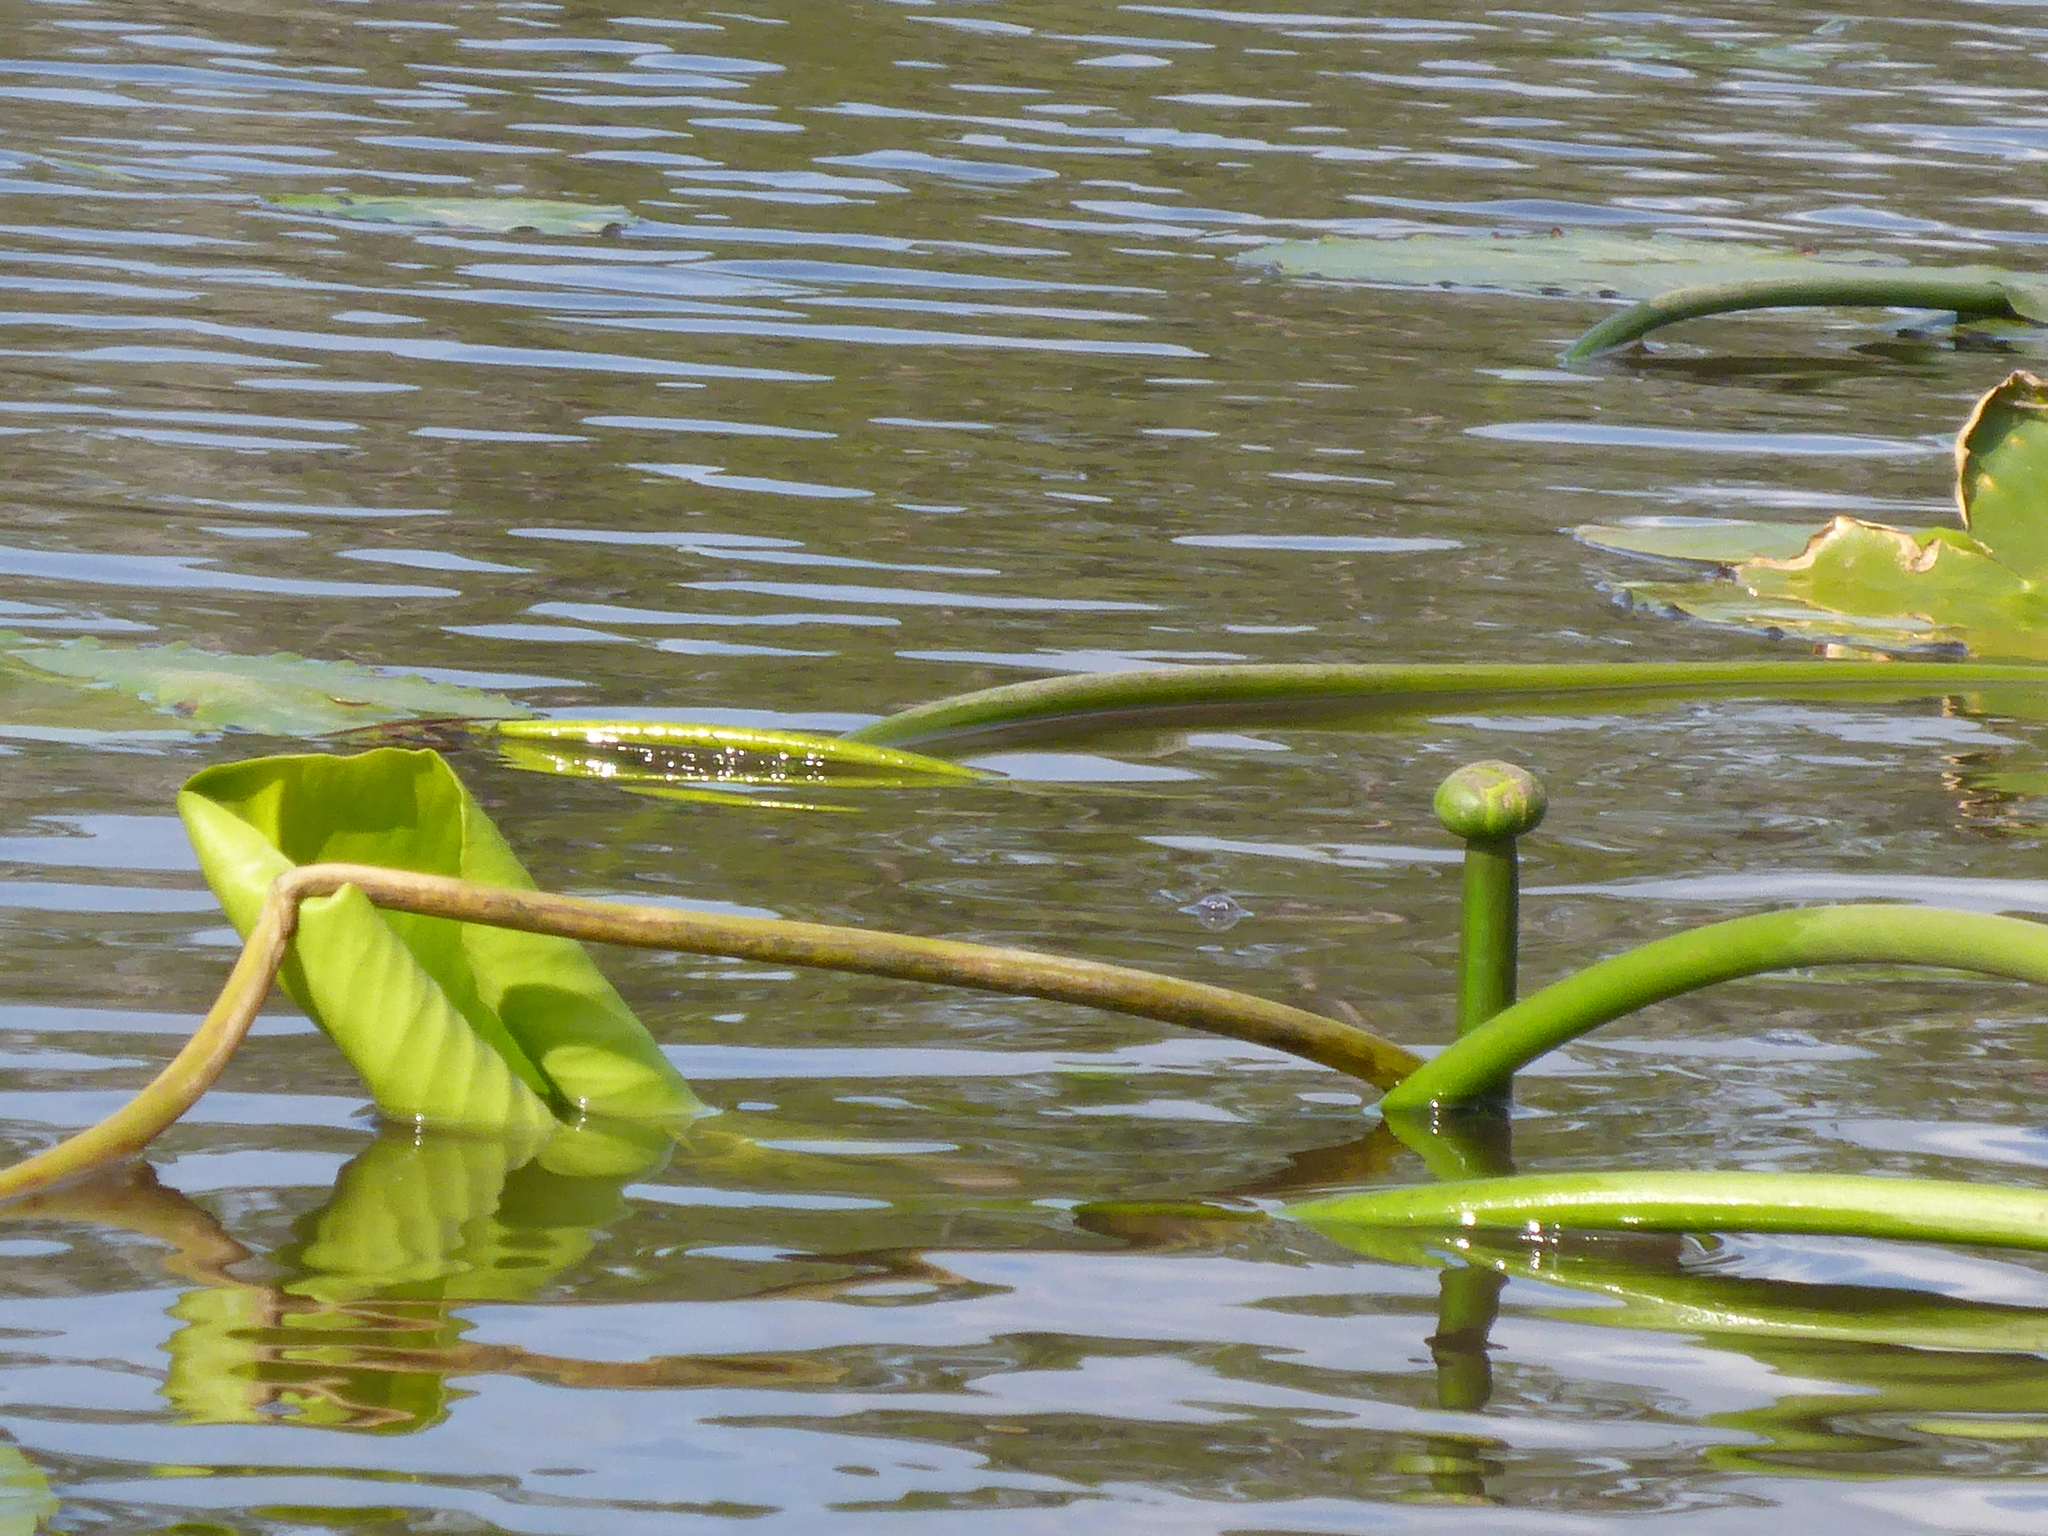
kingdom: Plantae
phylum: Tracheophyta
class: Magnoliopsida
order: Nymphaeales
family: Nymphaeaceae
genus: Nuphar
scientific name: Nuphar advena
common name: Spatter-dock
